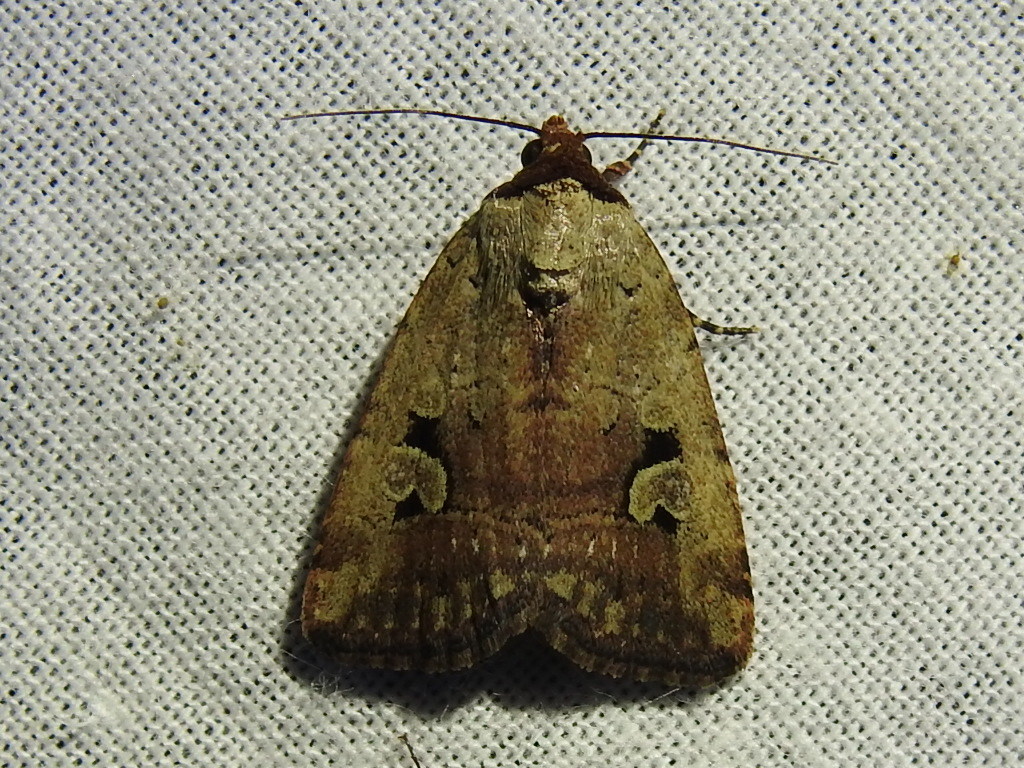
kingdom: Animalia
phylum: Arthropoda
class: Insecta
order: Lepidoptera
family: Noctuidae
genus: Elaphria
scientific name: Elaphria festivoides
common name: Festive midget
